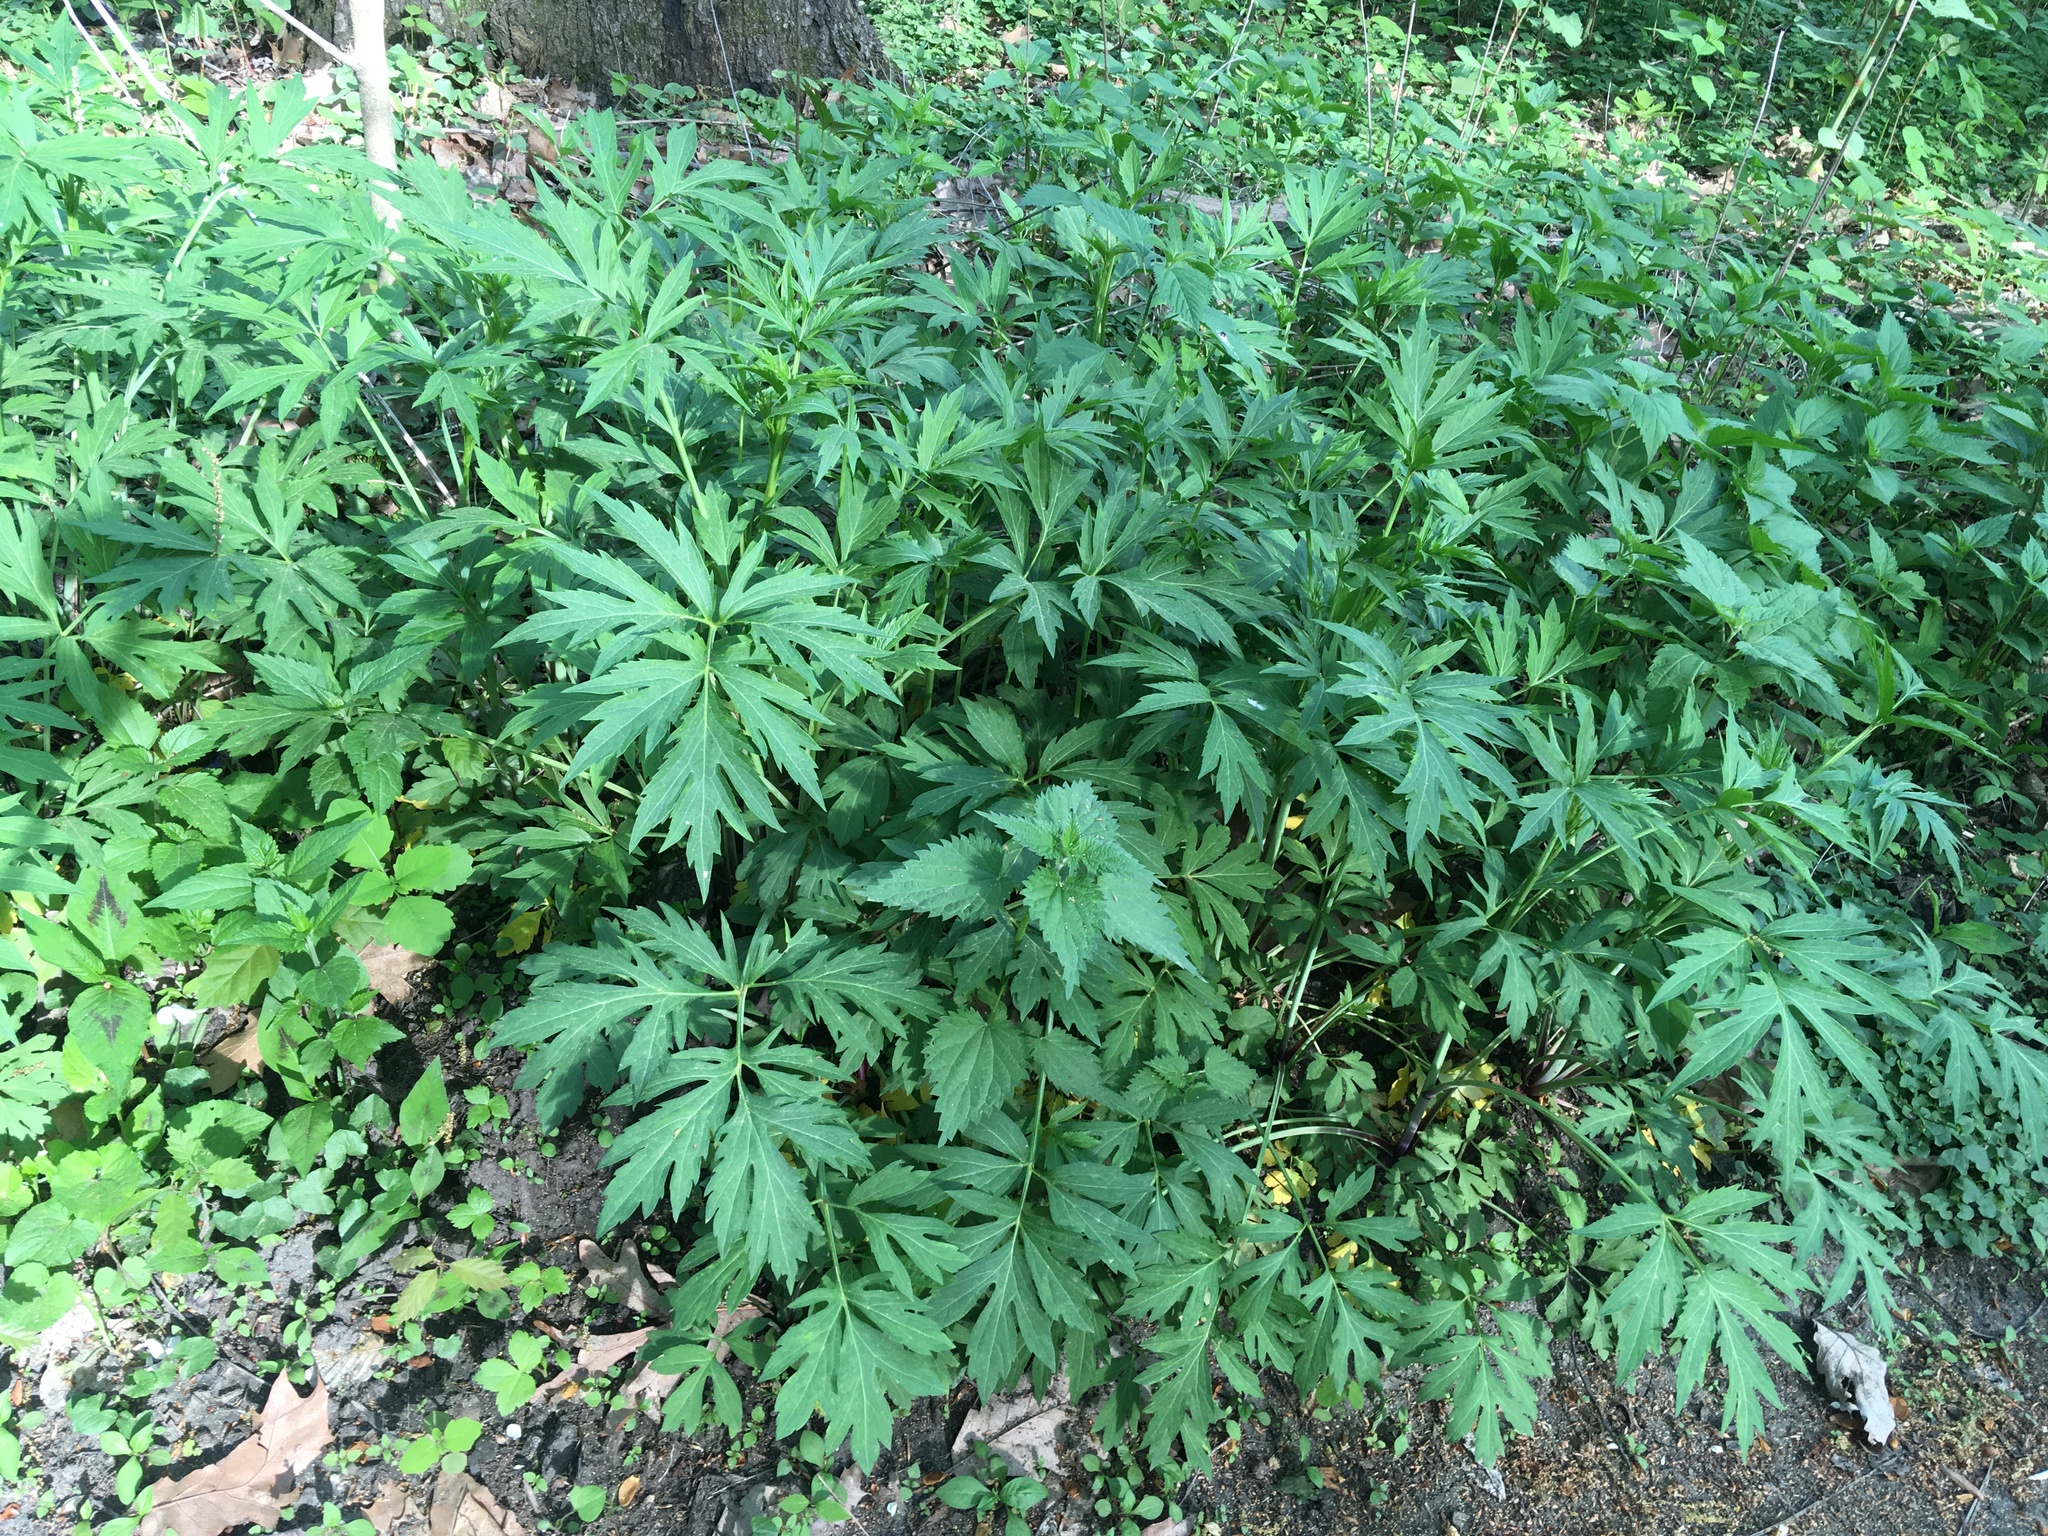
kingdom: Plantae
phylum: Tracheophyta
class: Magnoliopsida
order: Asterales
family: Asteraceae
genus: Rudbeckia
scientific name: Rudbeckia laciniata
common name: Coneflower
